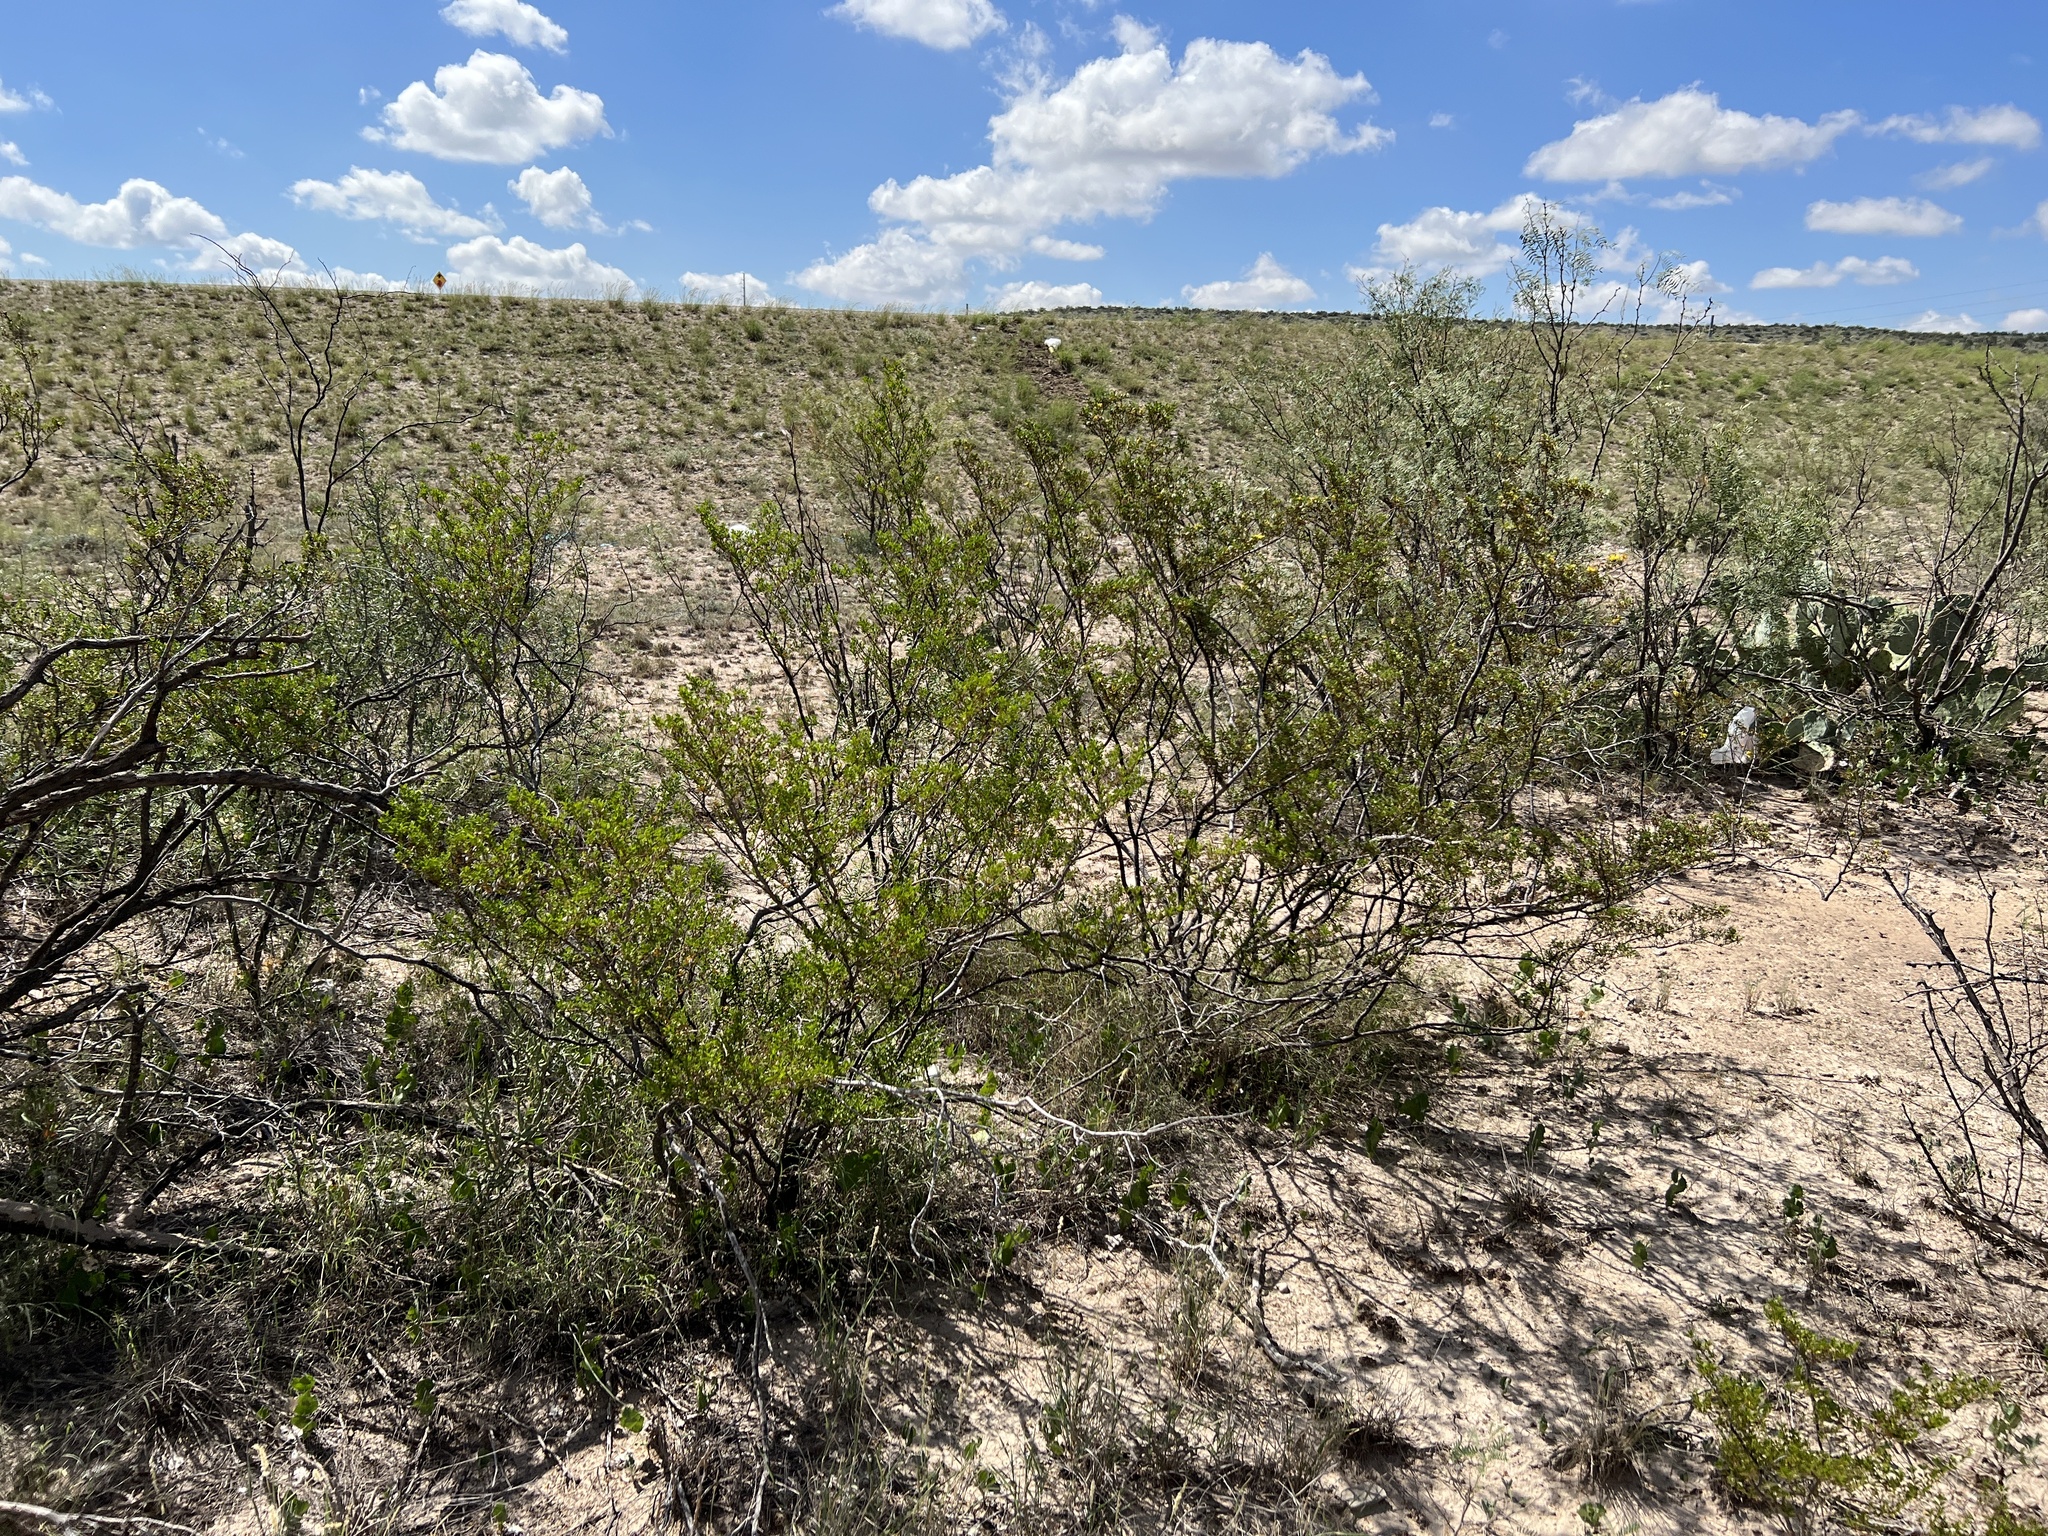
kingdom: Plantae
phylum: Tracheophyta
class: Magnoliopsida
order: Zygophyllales
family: Zygophyllaceae
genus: Larrea
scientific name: Larrea tridentata
